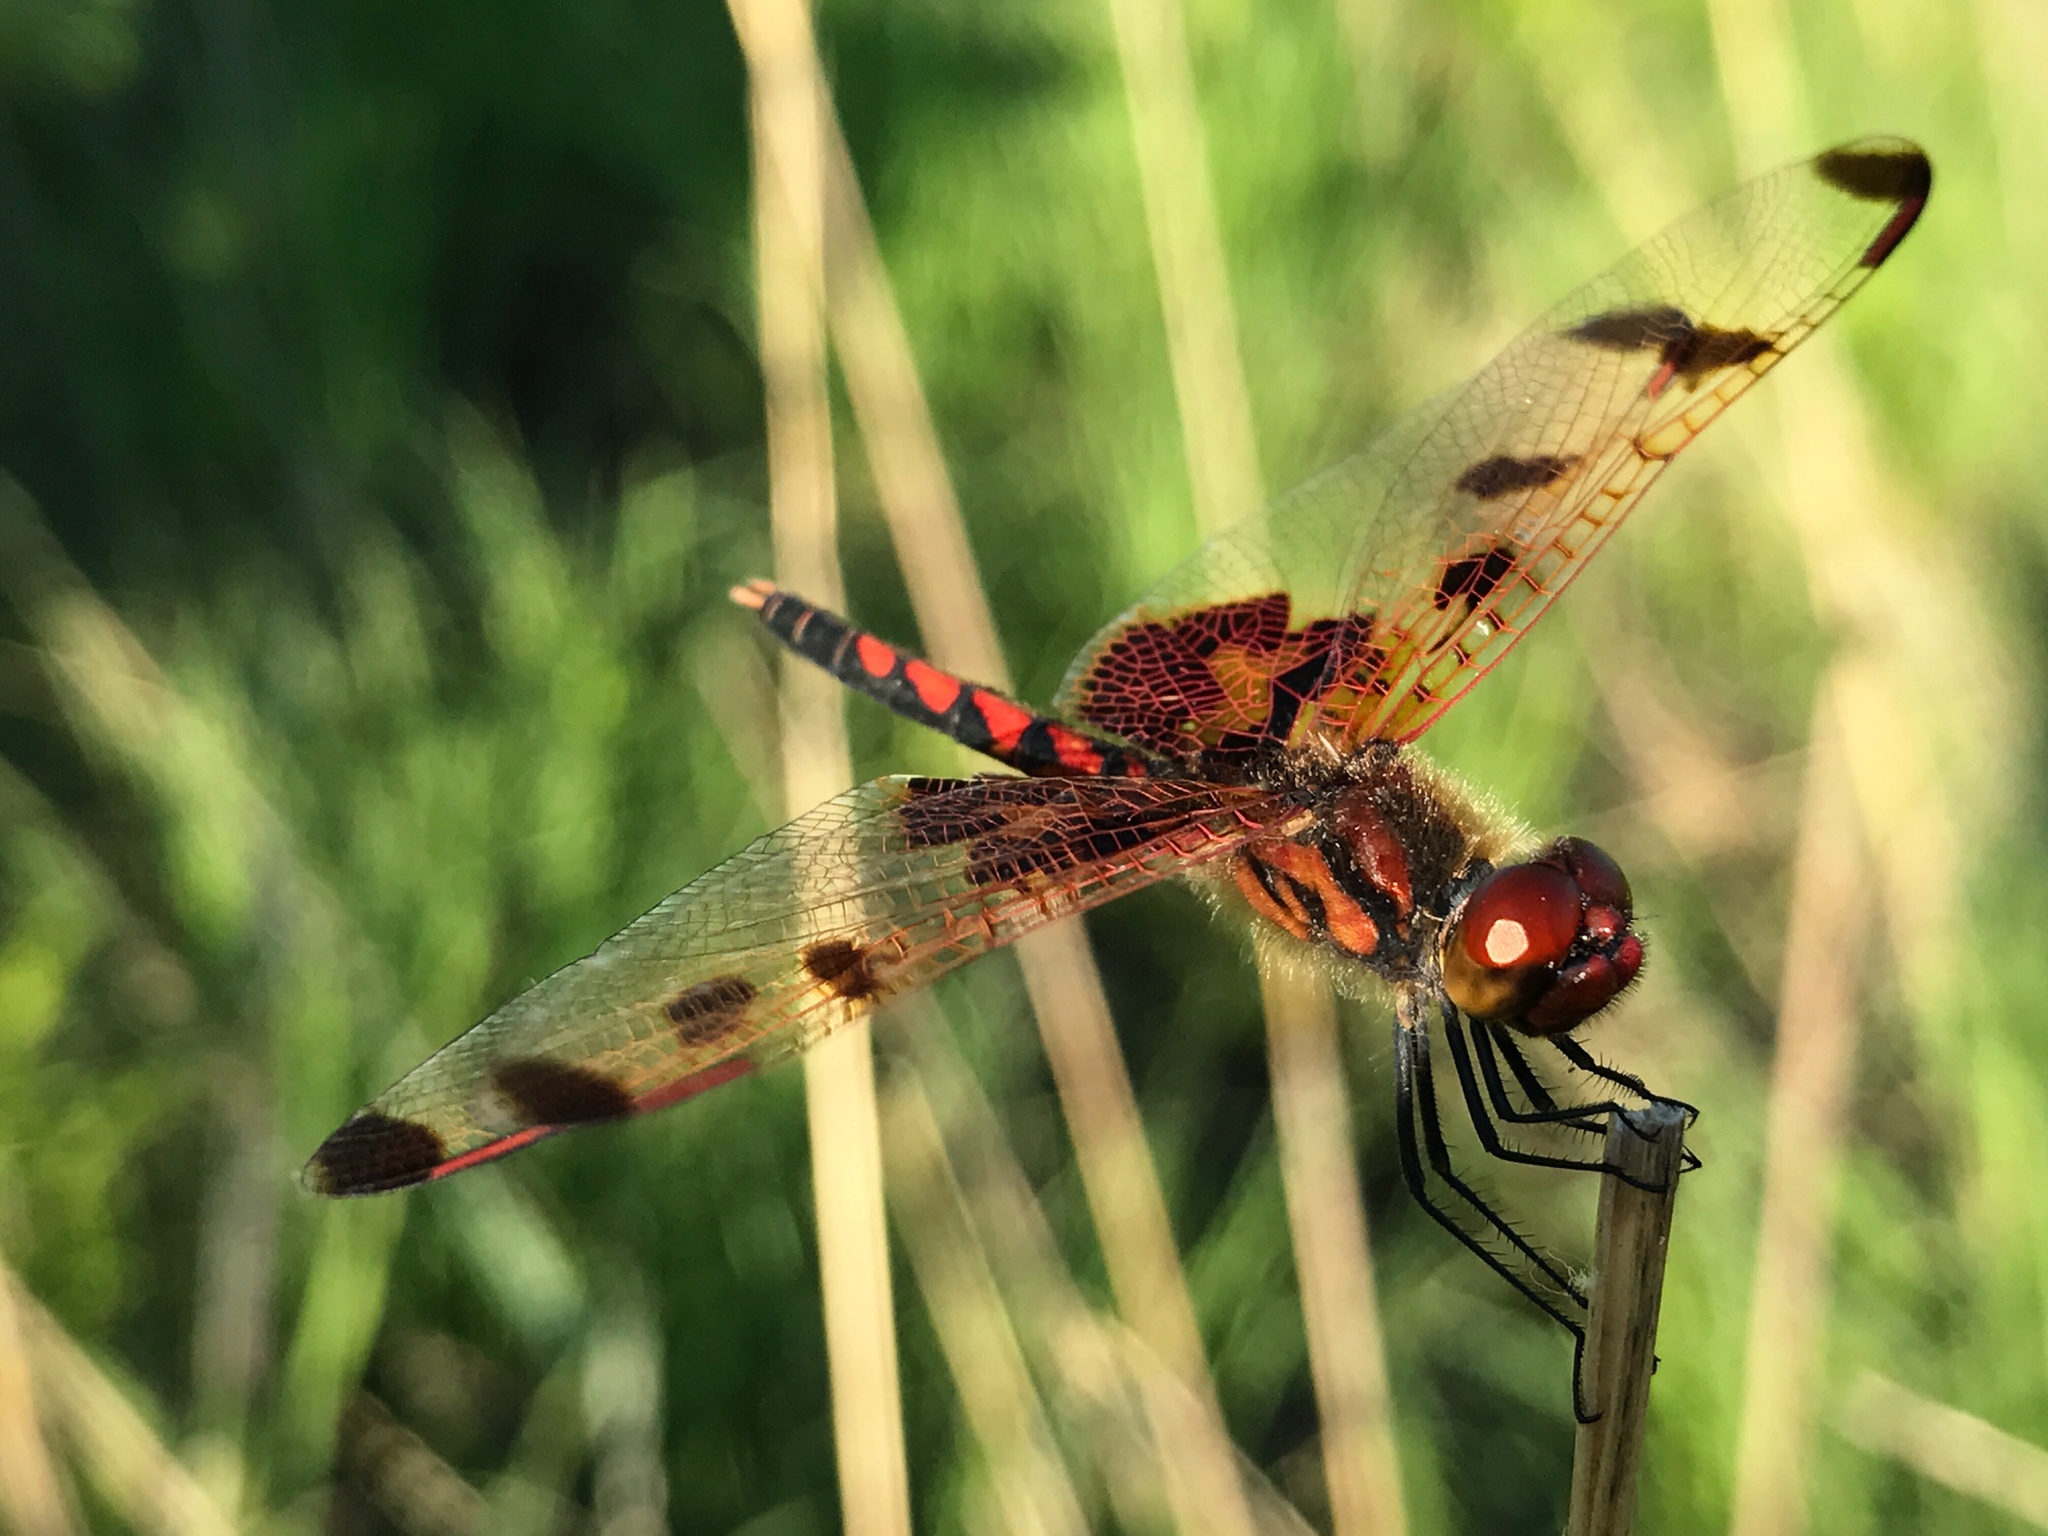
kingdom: Animalia
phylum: Arthropoda
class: Insecta
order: Odonata
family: Libellulidae
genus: Celithemis
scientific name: Celithemis elisa
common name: Calico pennant
